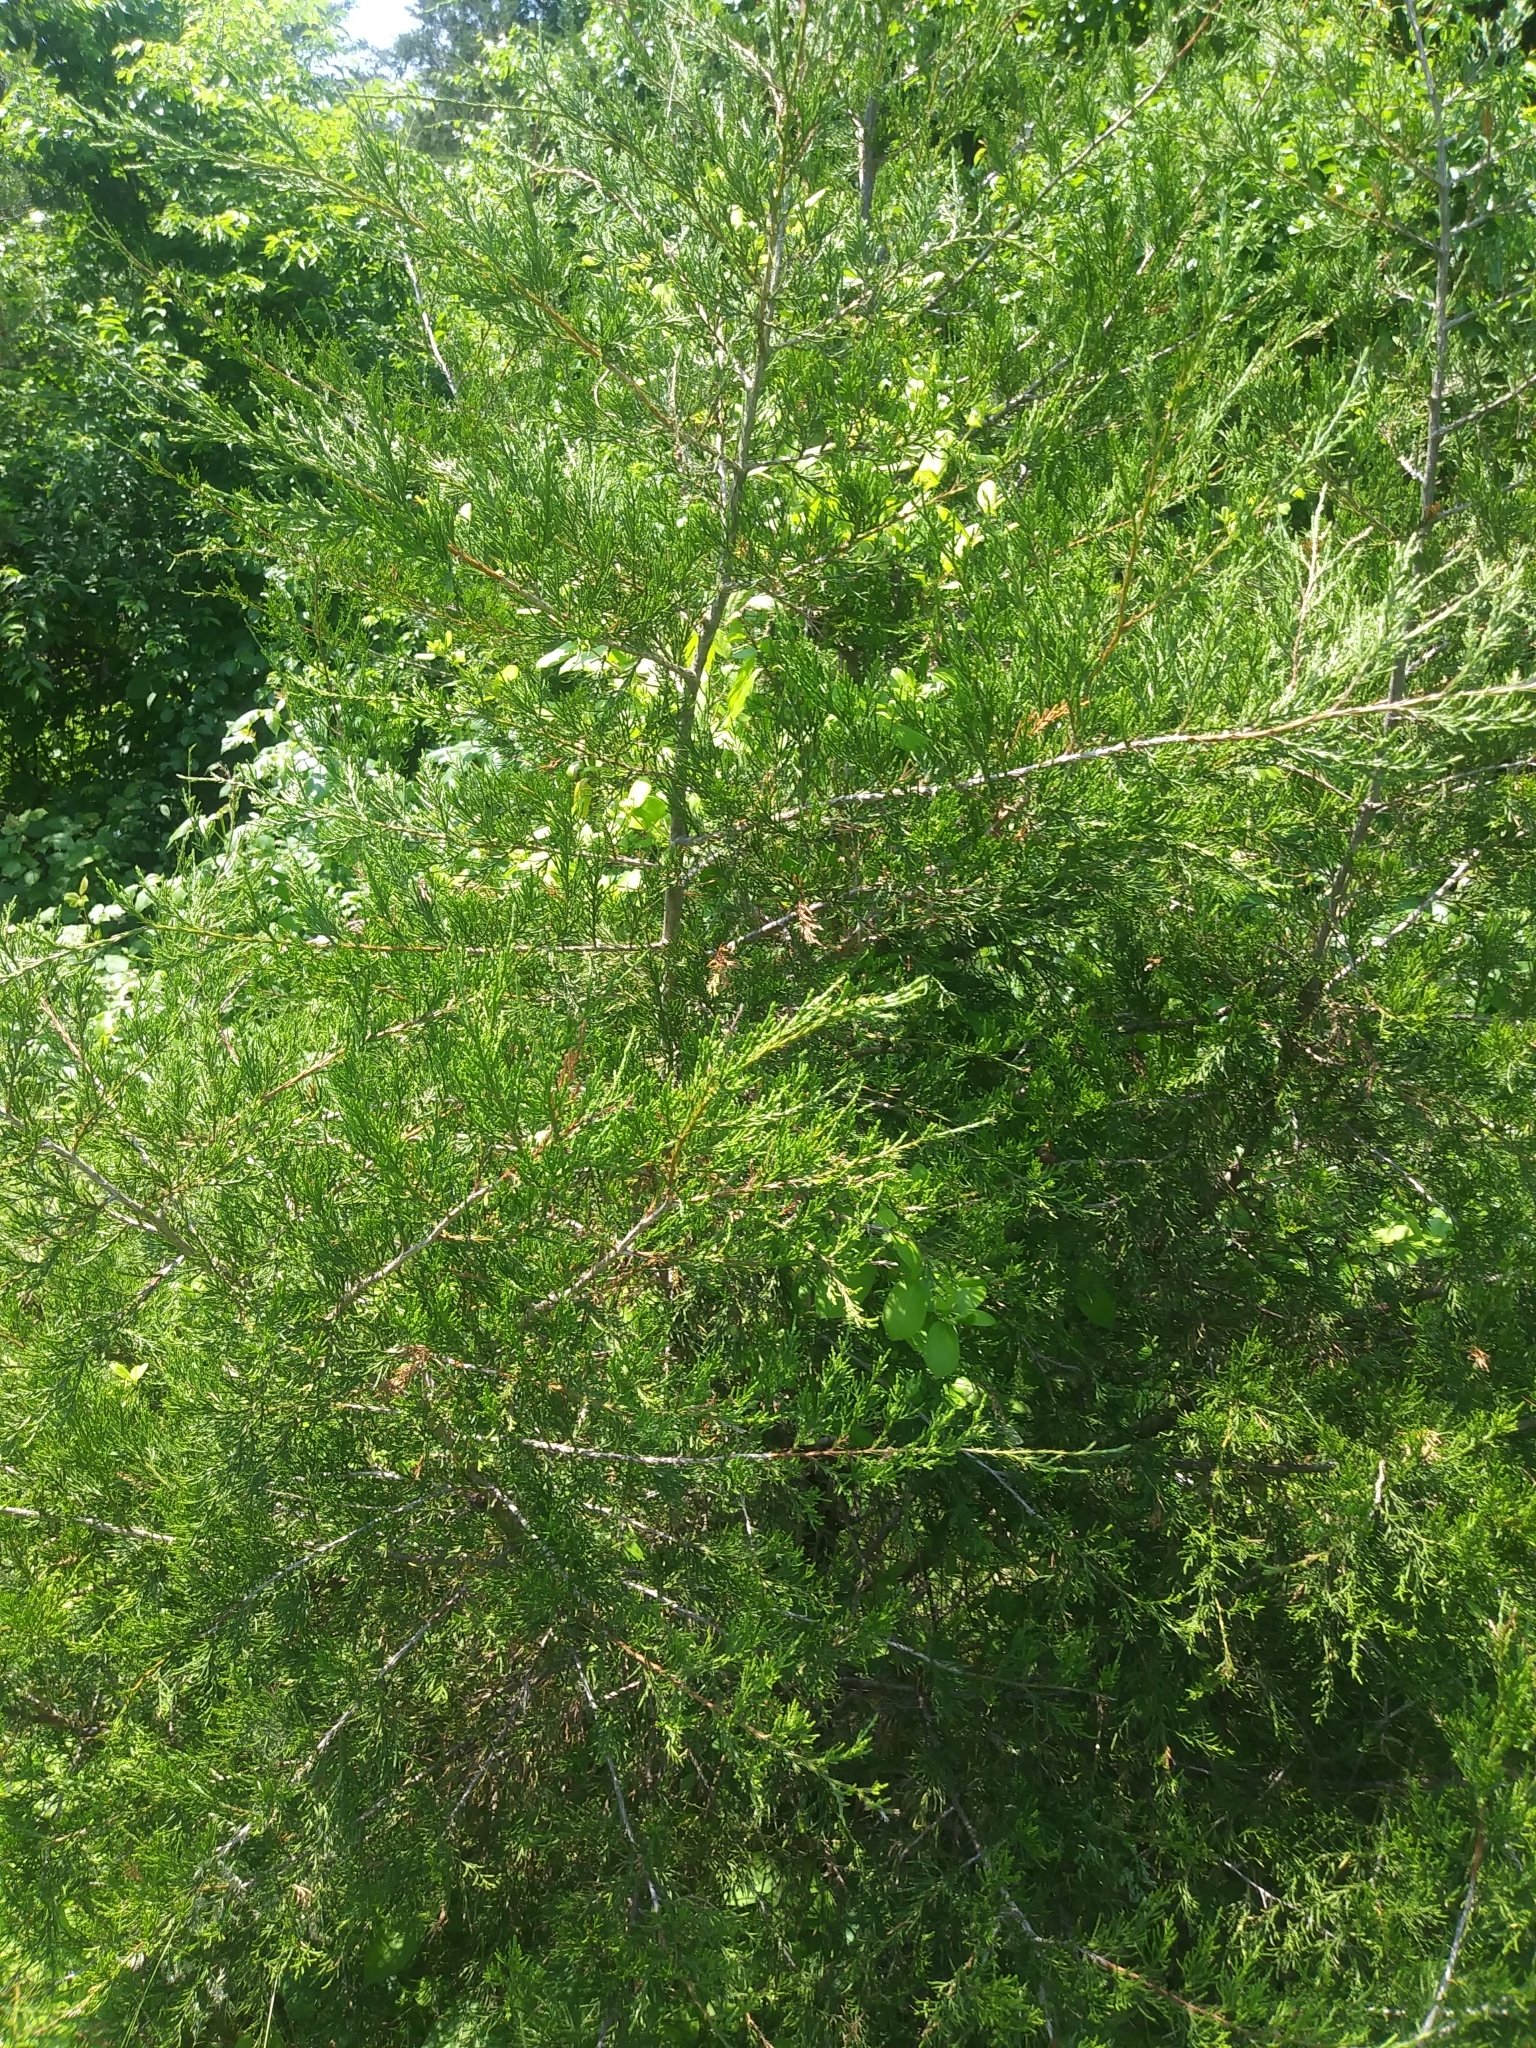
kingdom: Plantae
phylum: Tracheophyta
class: Pinopsida
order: Pinales
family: Cupressaceae
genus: Juniperus
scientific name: Juniperus virginiana
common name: Red juniper
